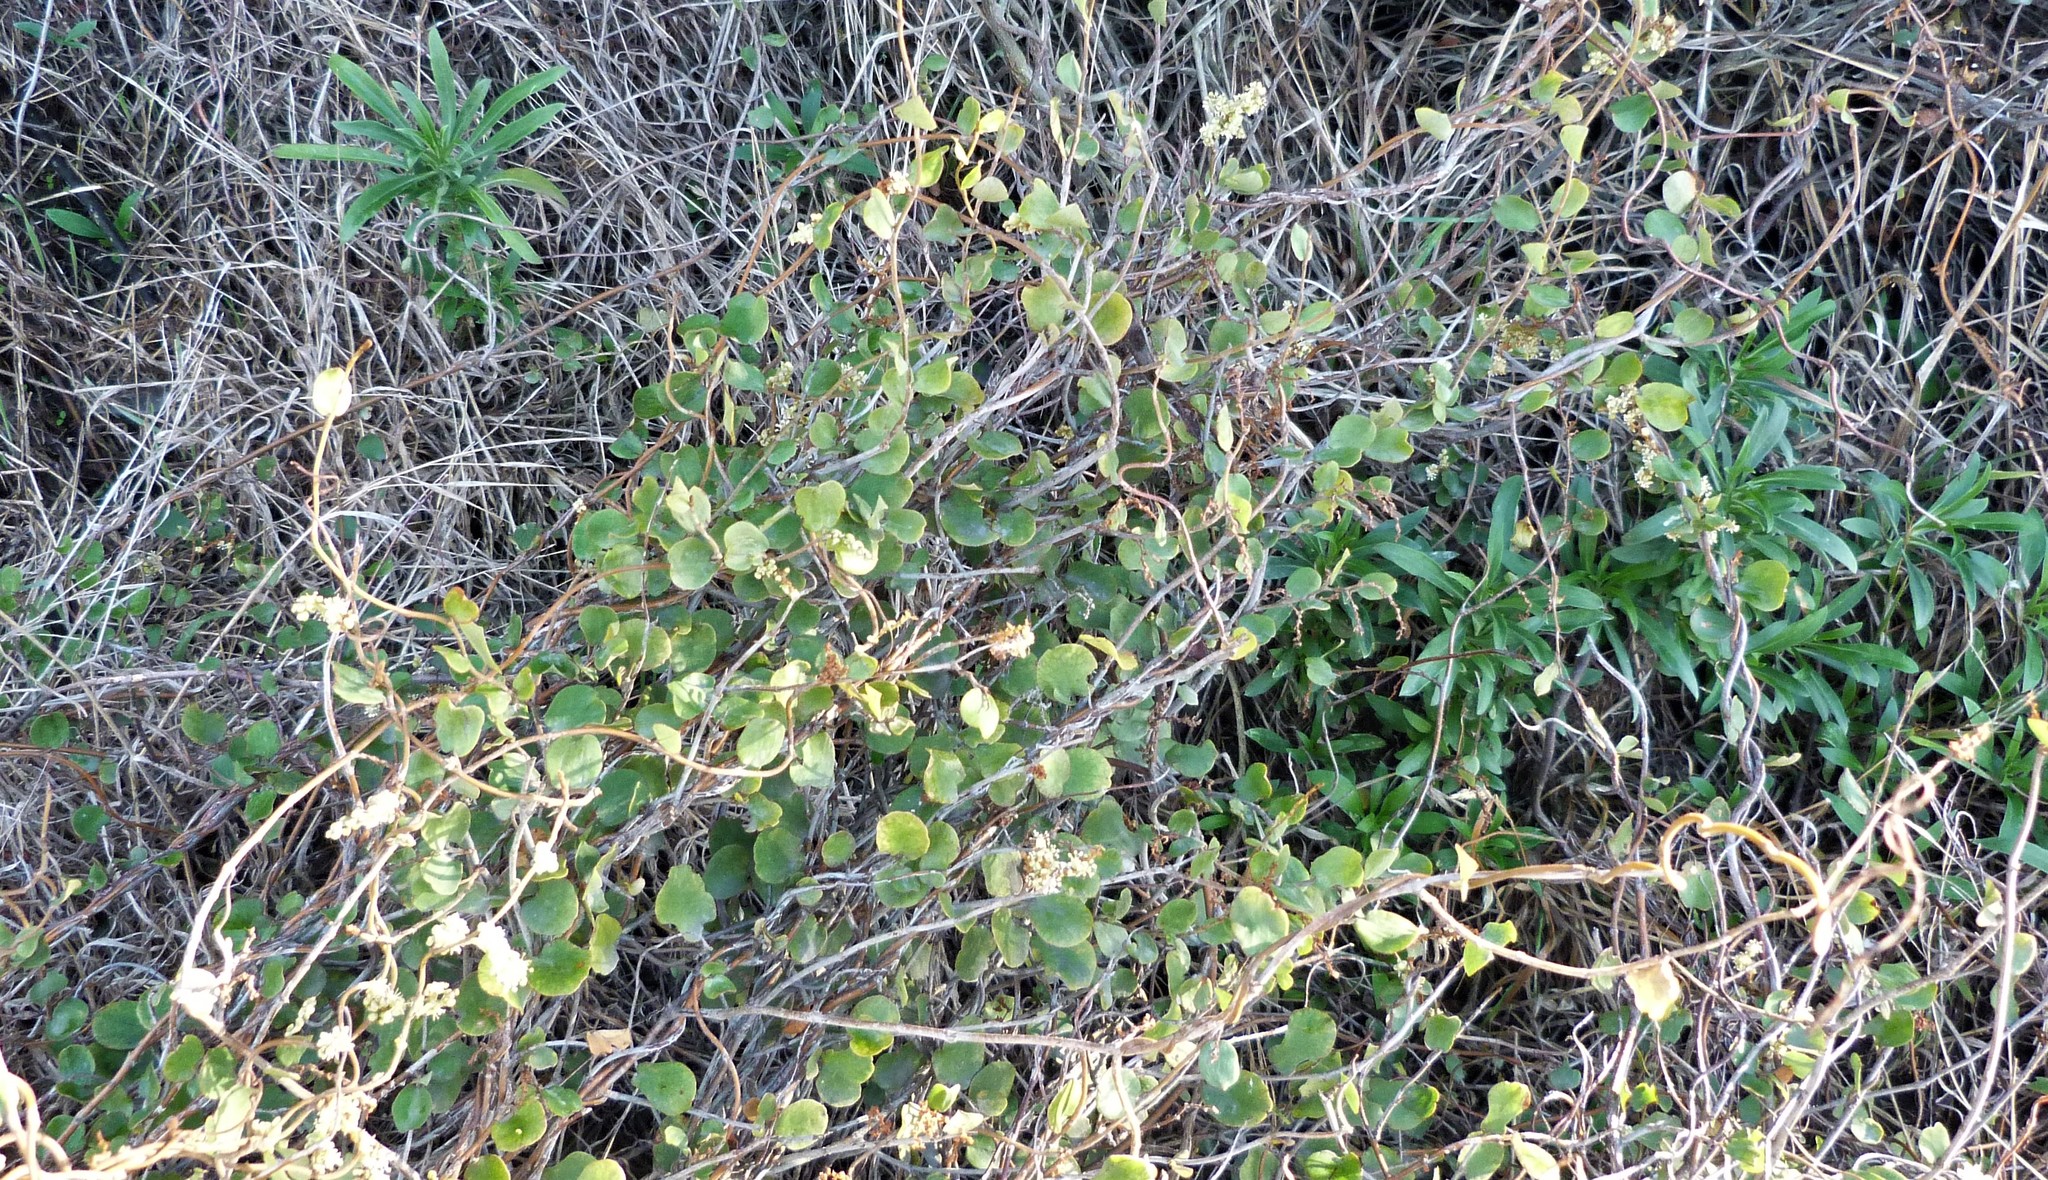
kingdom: Plantae
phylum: Tracheophyta
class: Magnoliopsida
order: Brassicales
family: Brassicaceae
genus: Erysimum
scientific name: Erysimum cheiri
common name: Wallflower
